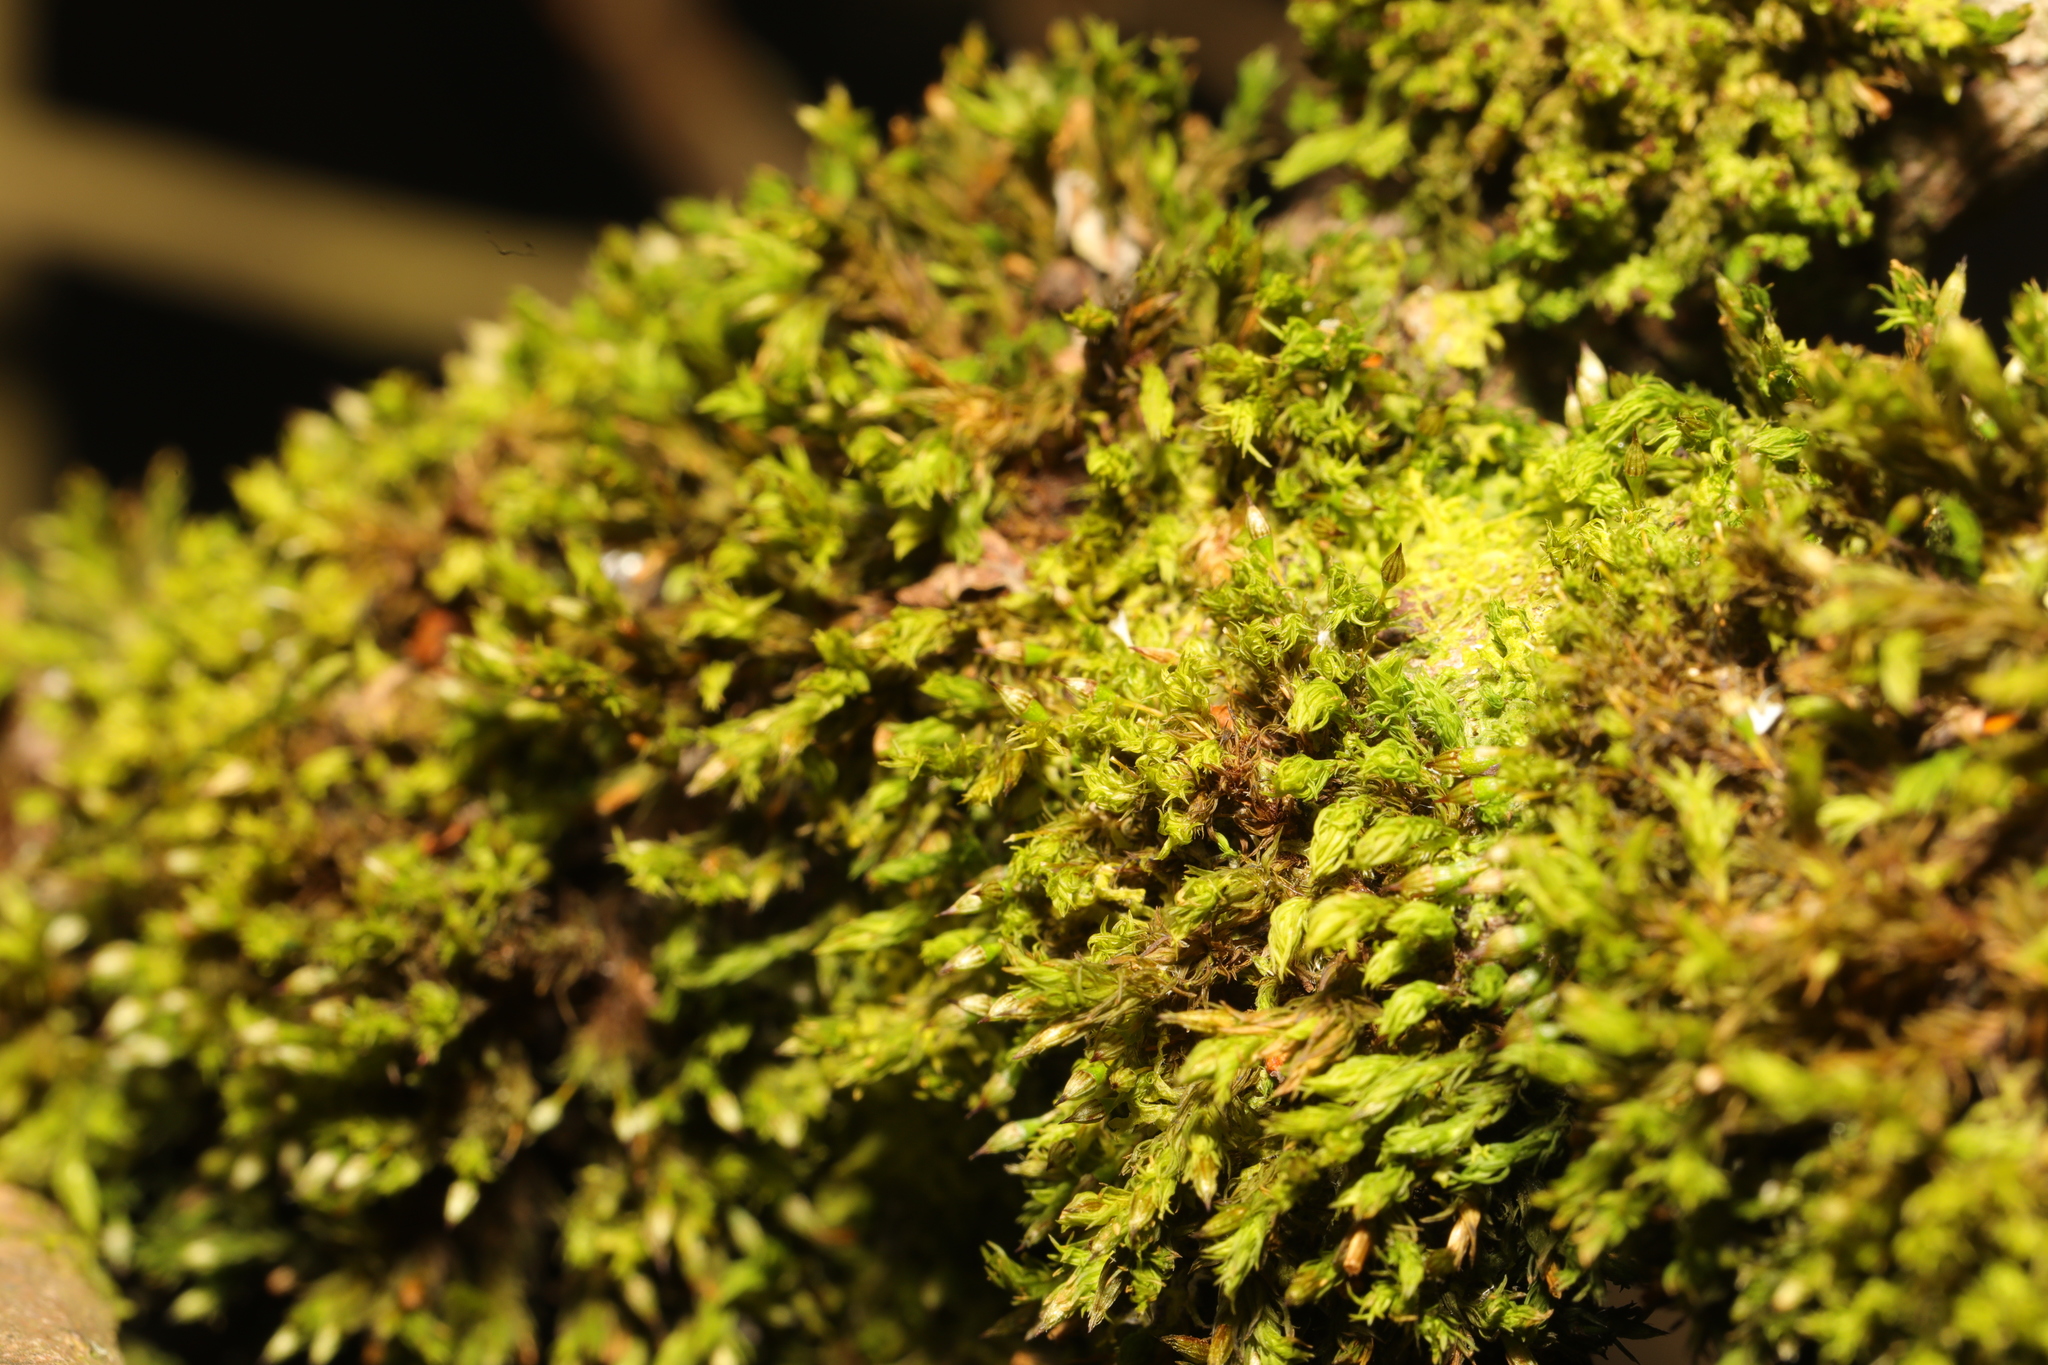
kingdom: Plantae
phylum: Bryophyta
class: Bryopsida
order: Orthotrichales
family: Orthotrichaceae
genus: Orthotrichum
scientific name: Orthotrichum pulchellum
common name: Elegant bristle-moss
